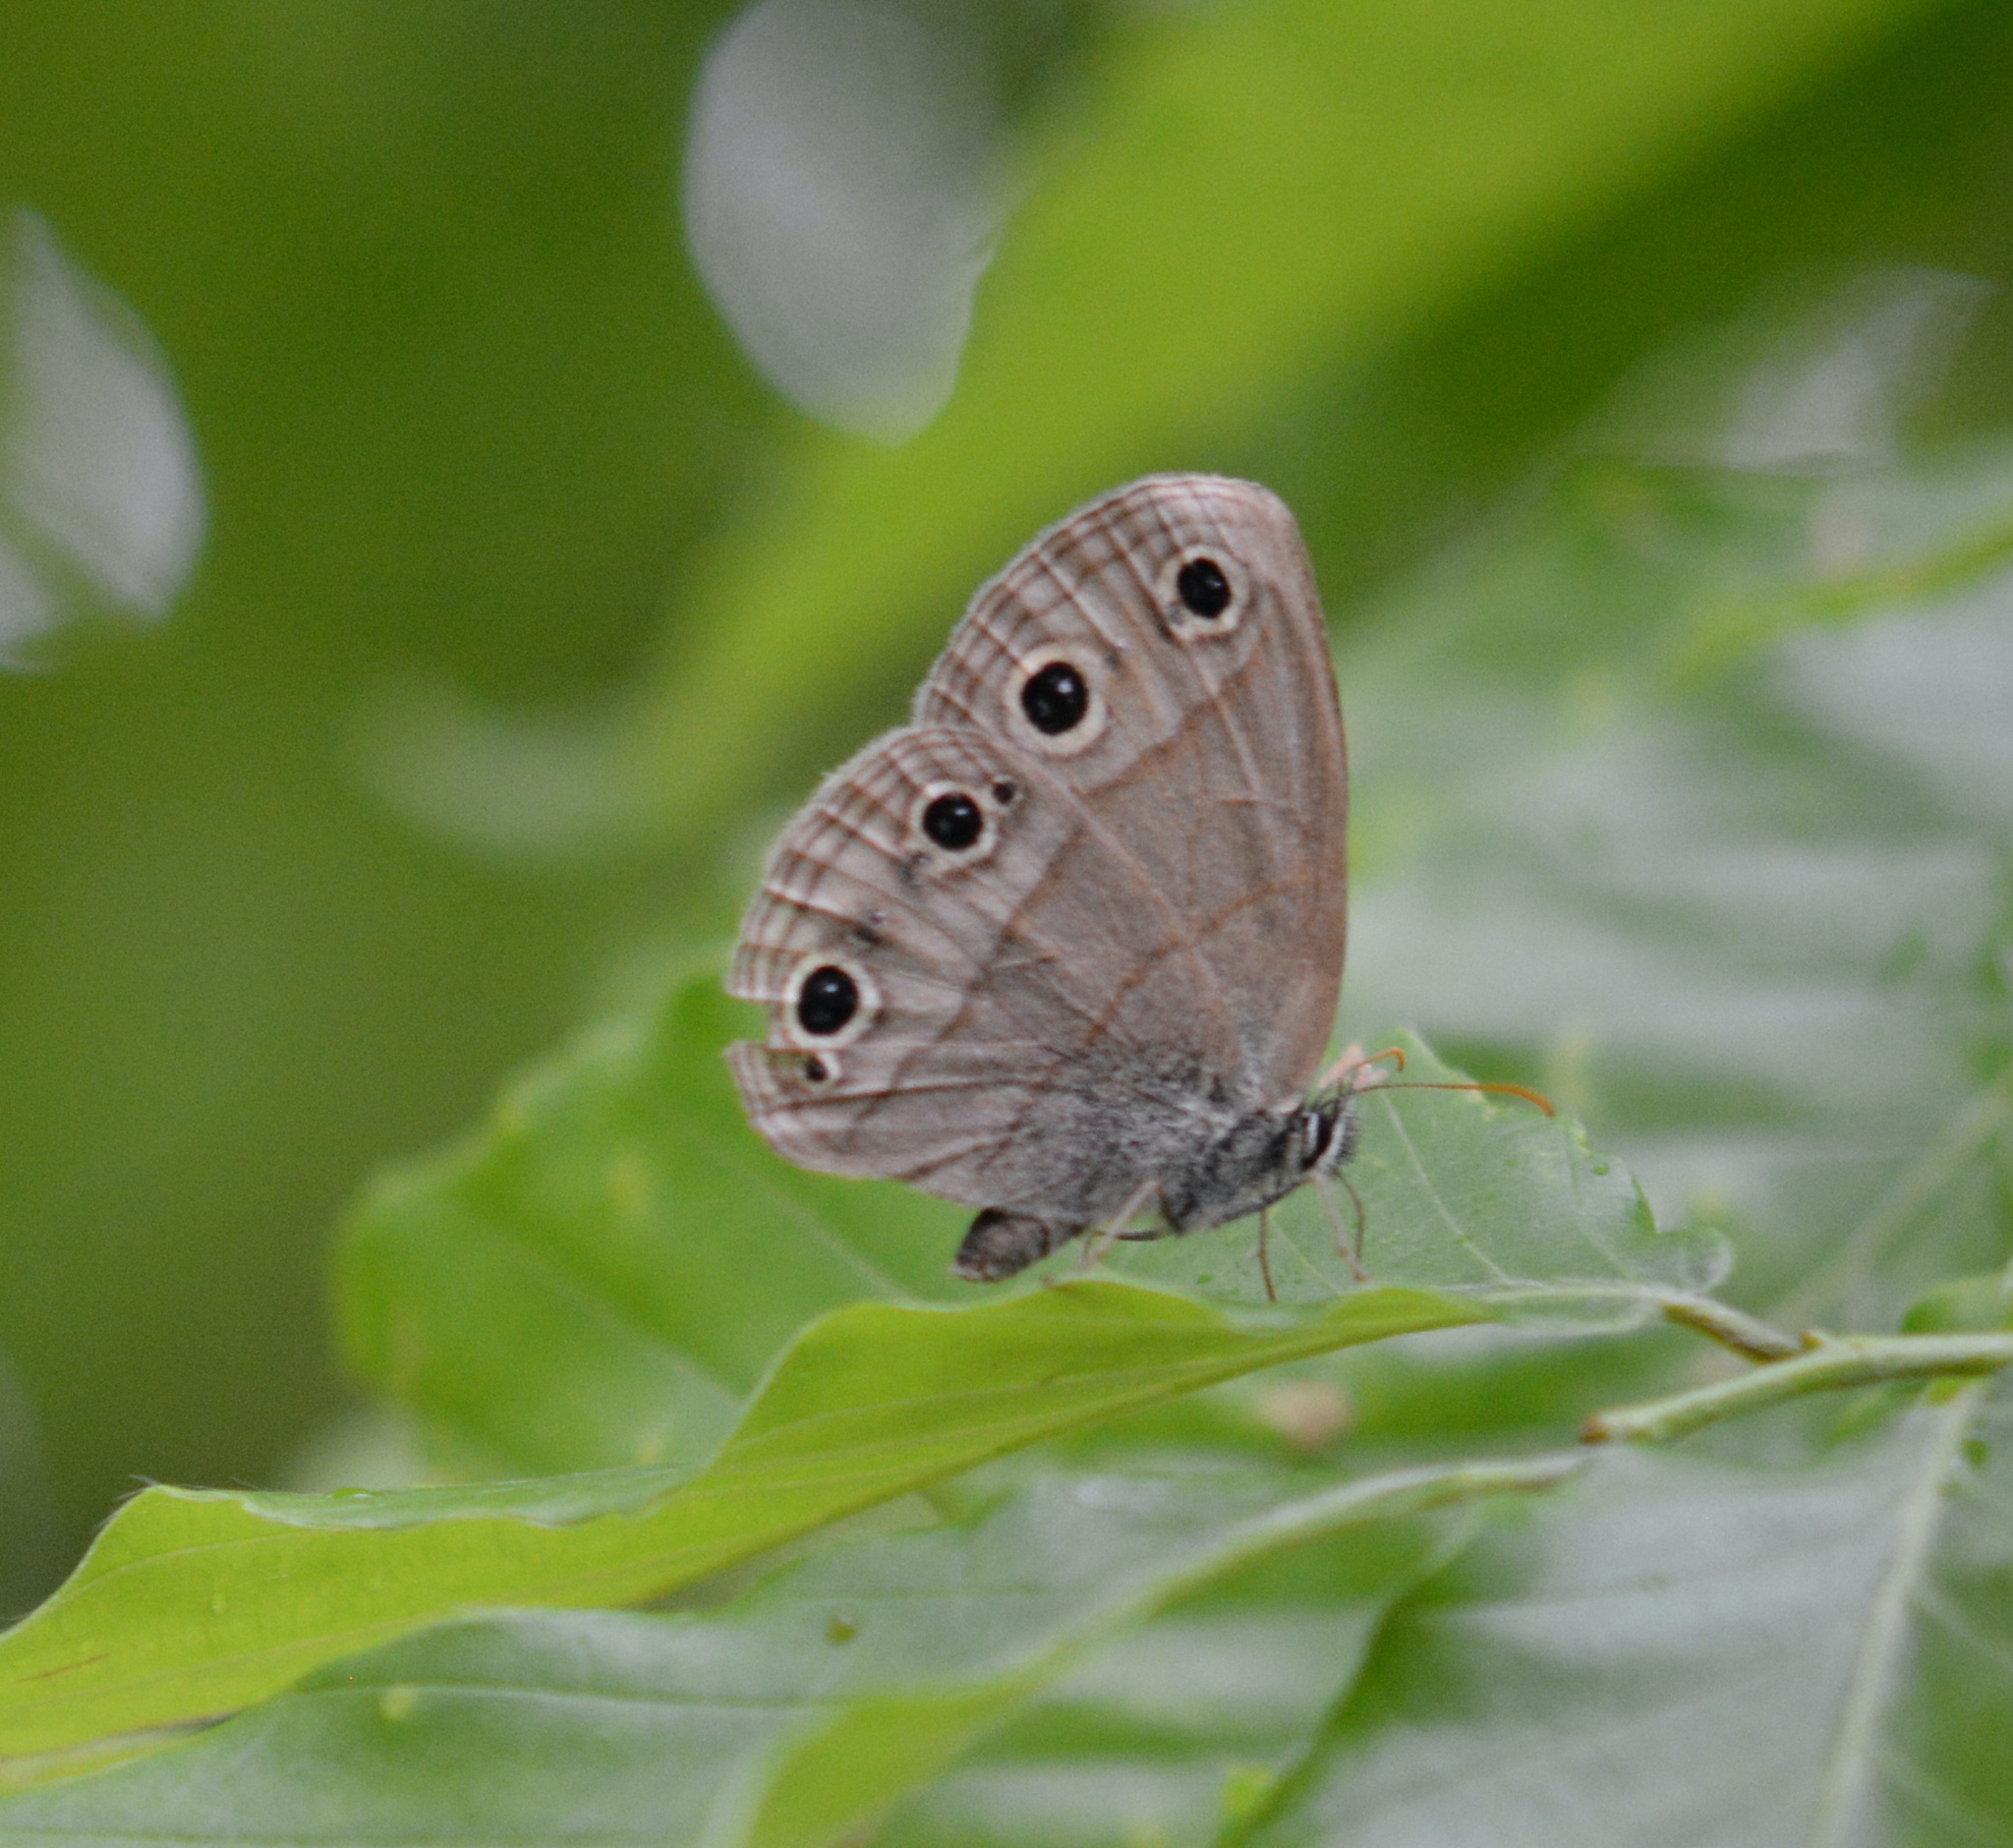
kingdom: Animalia
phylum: Arthropoda
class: Insecta
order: Lepidoptera
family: Nymphalidae
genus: Euptychia
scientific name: Euptychia cymela
